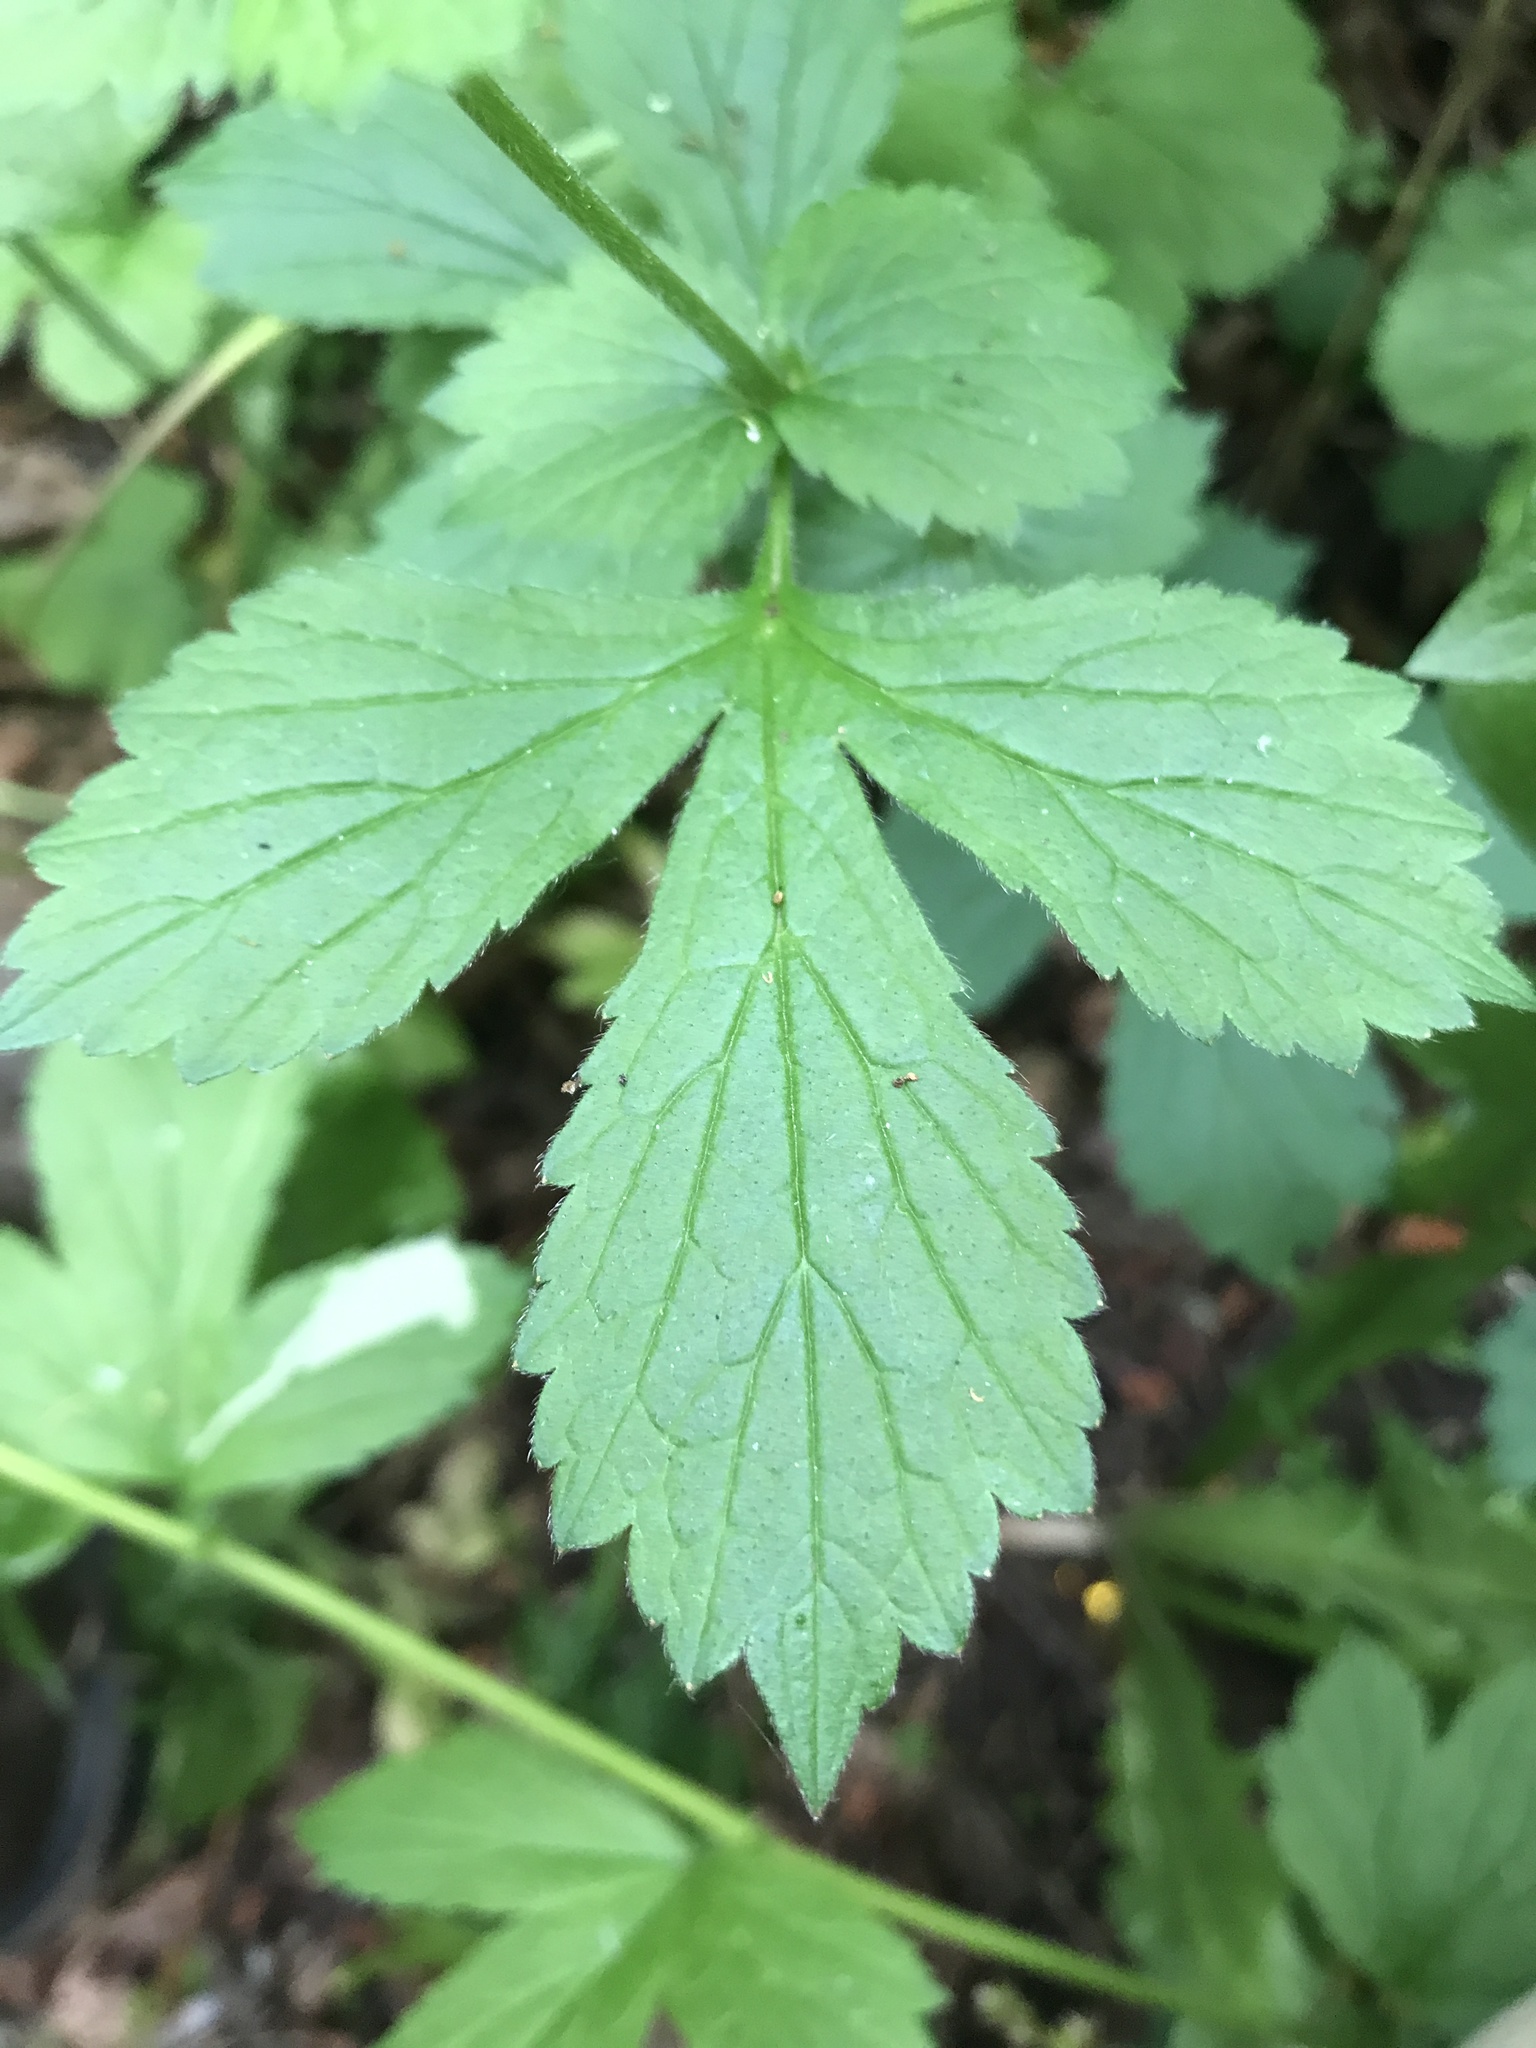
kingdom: Plantae
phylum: Tracheophyta
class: Magnoliopsida
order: Rosales
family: Rosaceae
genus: Geum
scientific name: Geum urbanum
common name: Wood avens
